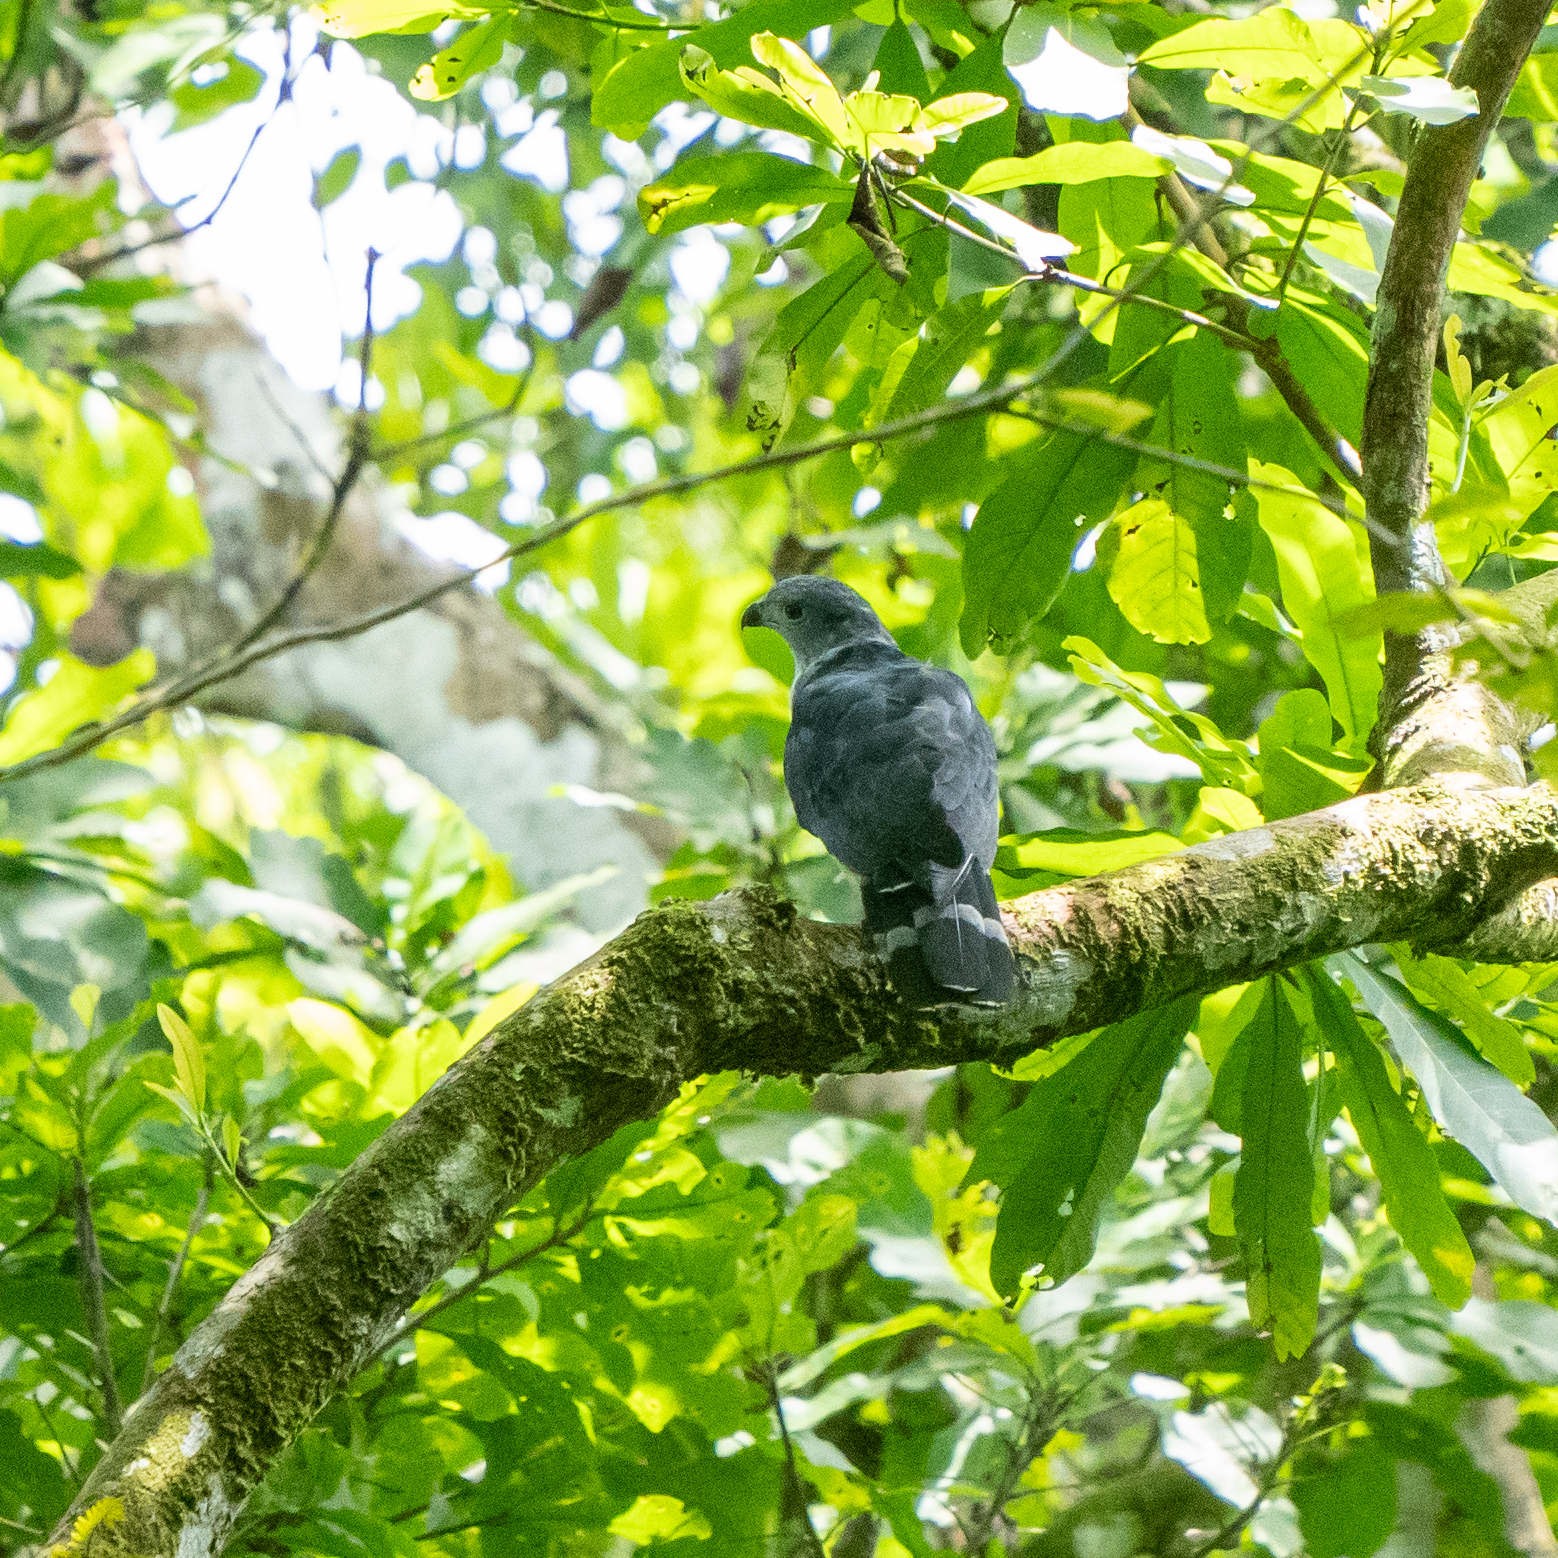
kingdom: Animalia
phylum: Chordata
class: Aves
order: Accipitriformes
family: Accipitridae
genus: Leptodon
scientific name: Leptodon cayanensis
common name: Gray-headed kite
